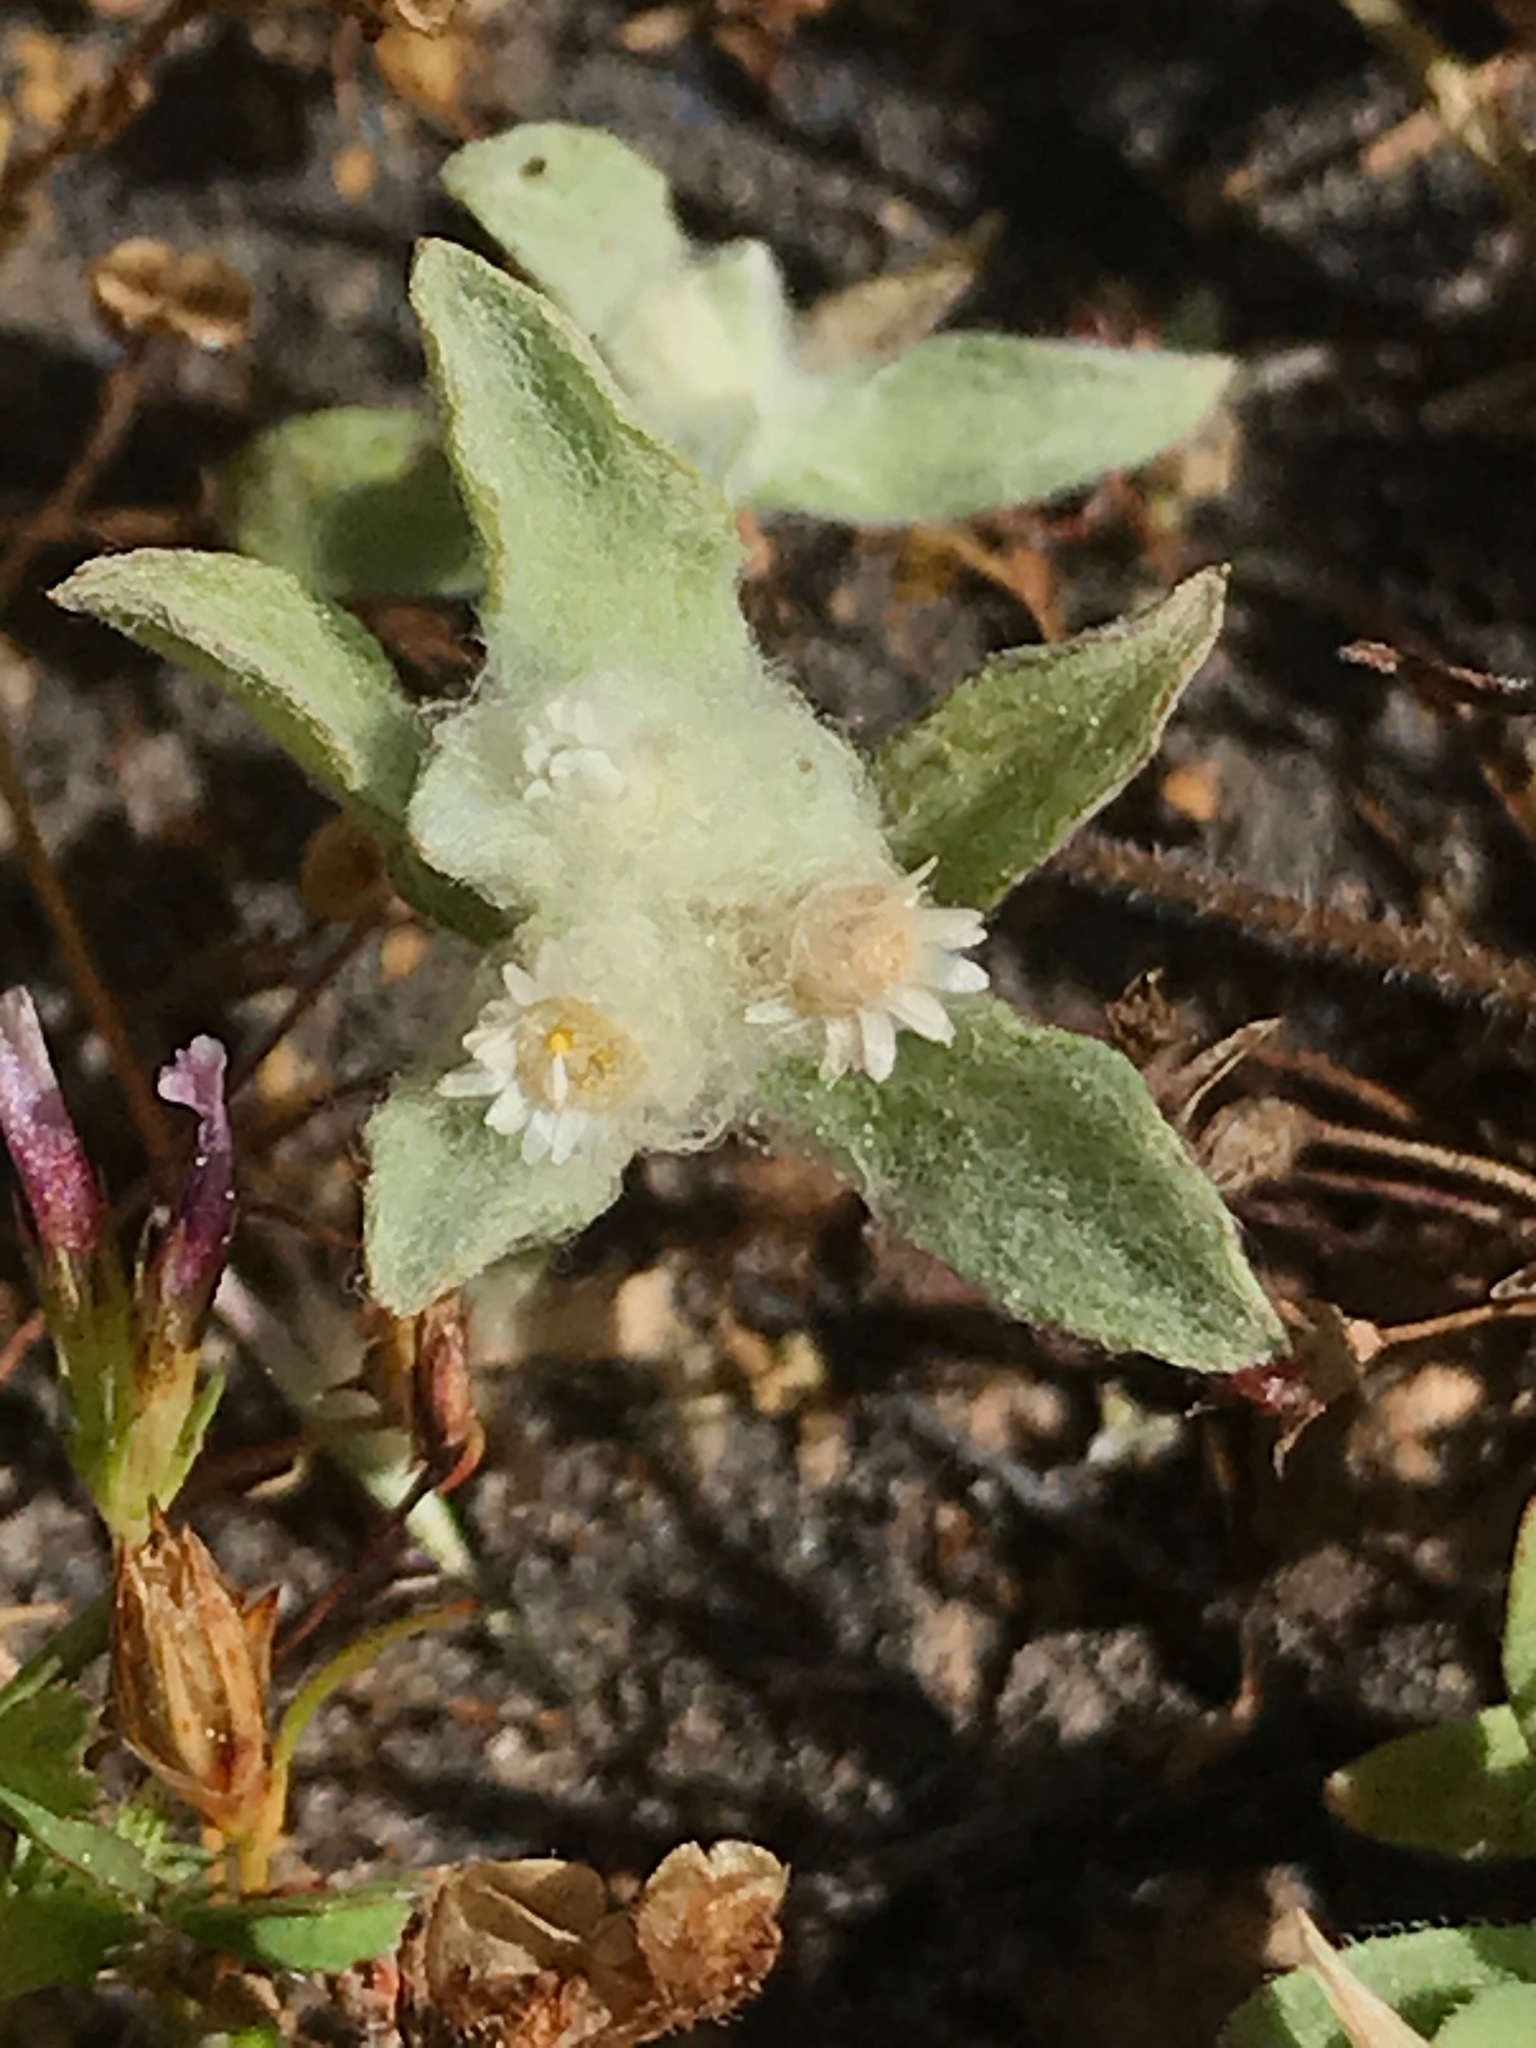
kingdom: Plantae
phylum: Tracheophyta
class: Magnoliopsida
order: Asterales
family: Asteraceae
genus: Gnaphalium
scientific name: Gnaphalium palustre
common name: Western marsh cudweed
